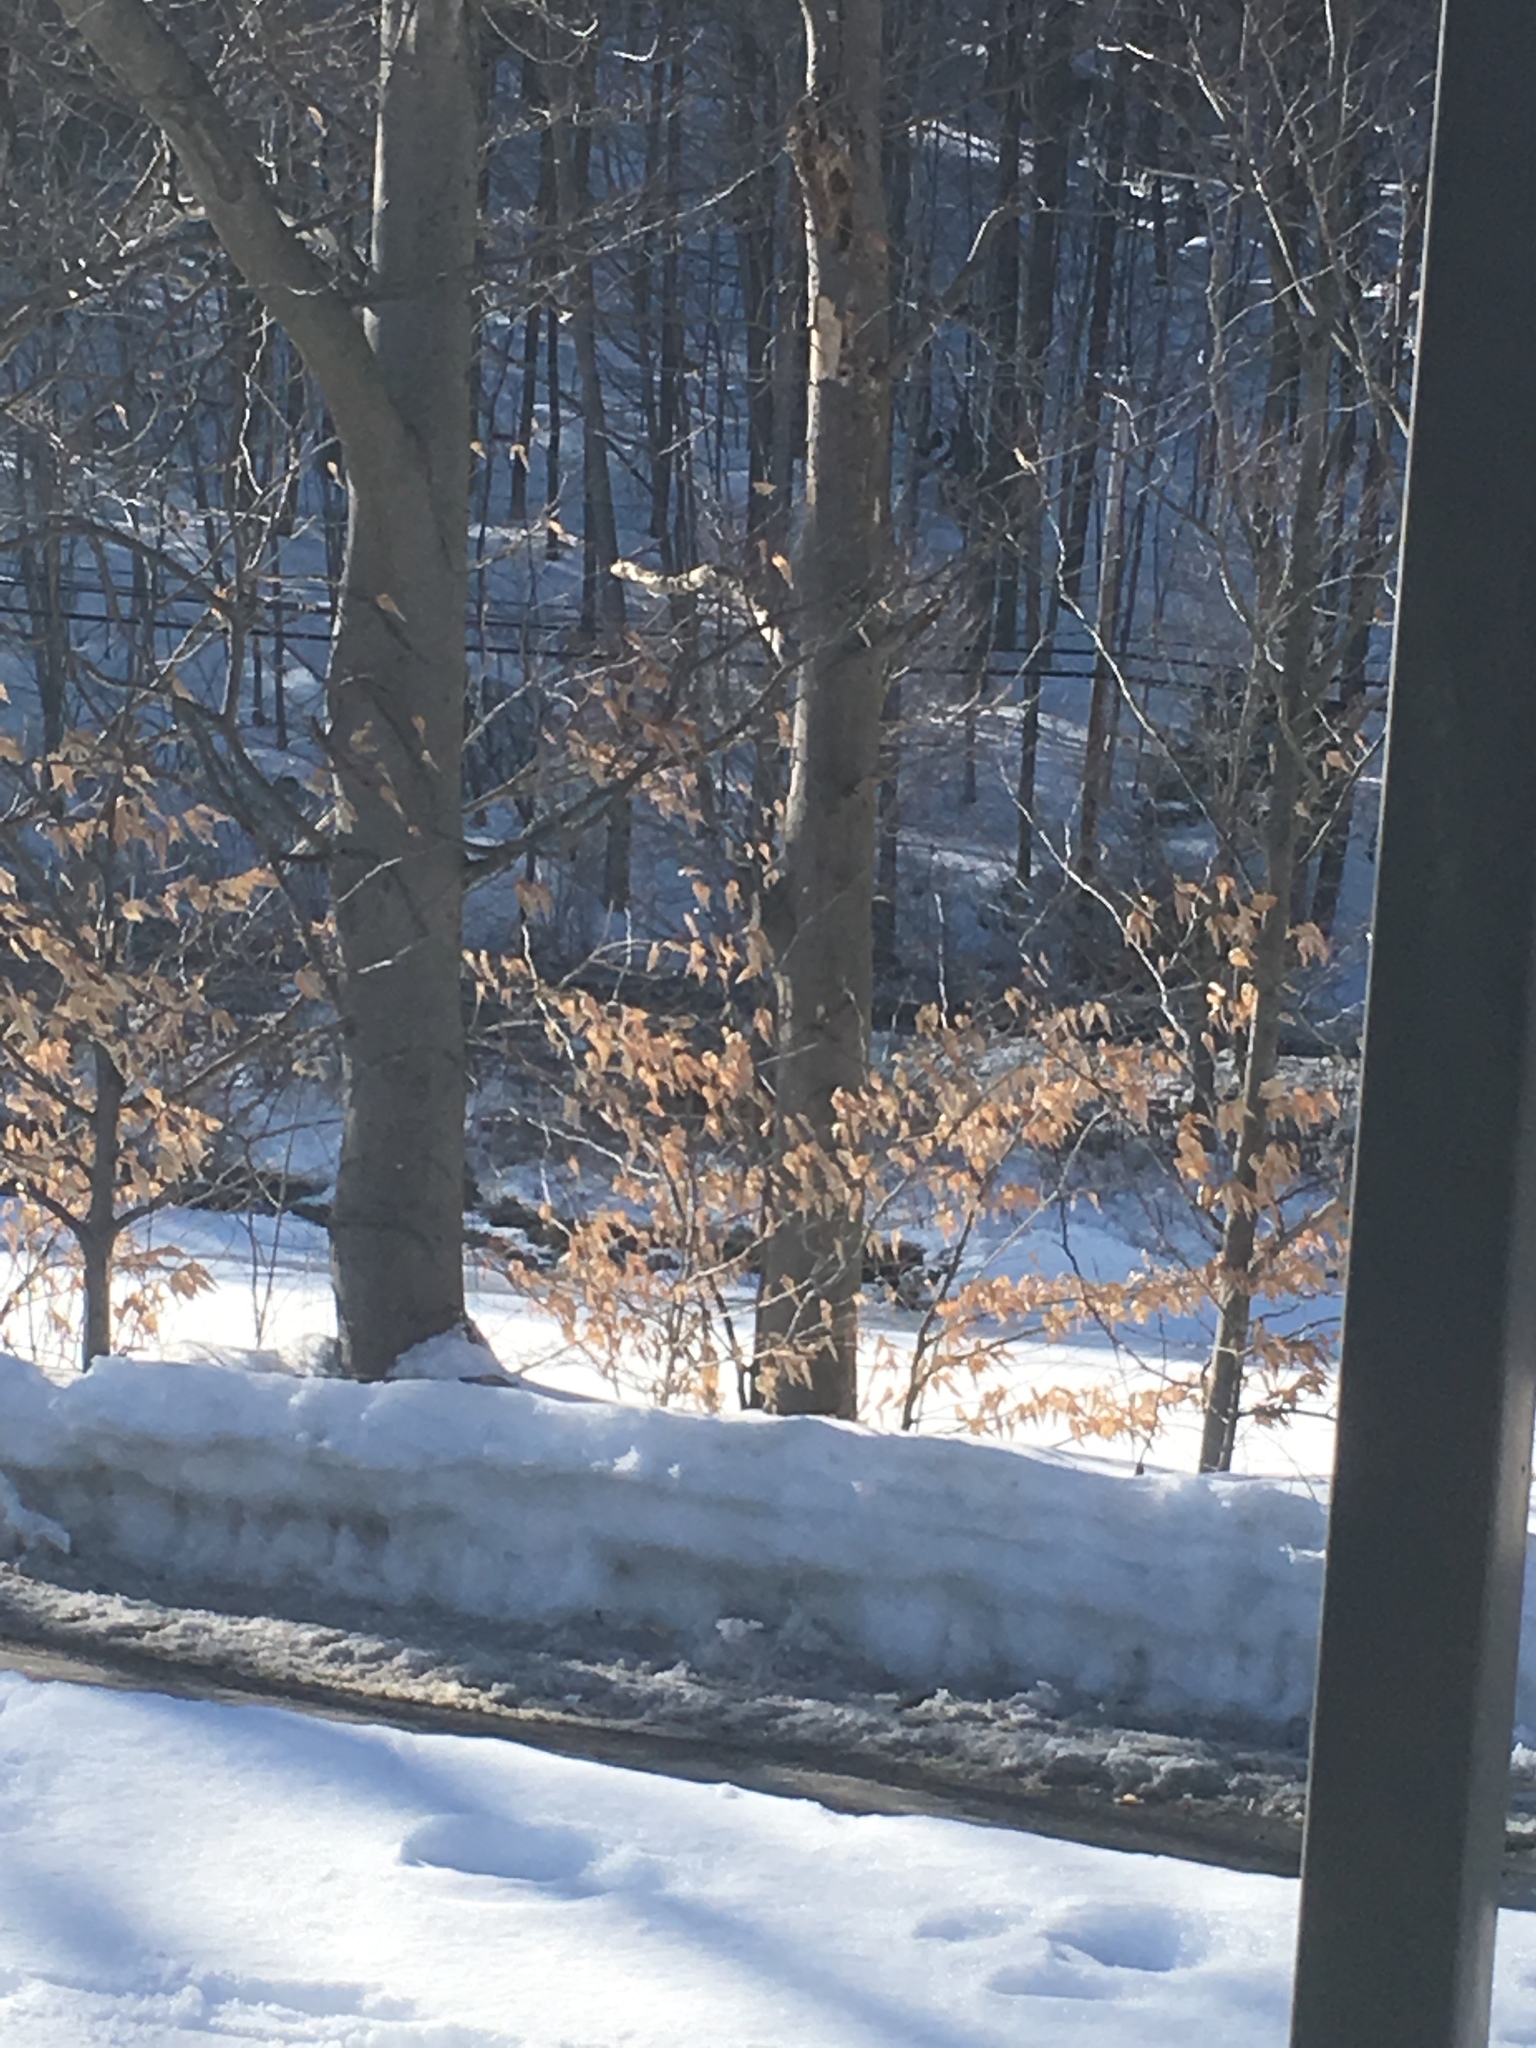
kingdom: Plantae
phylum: Tracheophyta
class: Magnoliopsida
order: Fagales
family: Fagaceae
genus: Fagus
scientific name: Fagus grandifolia
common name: American beech
